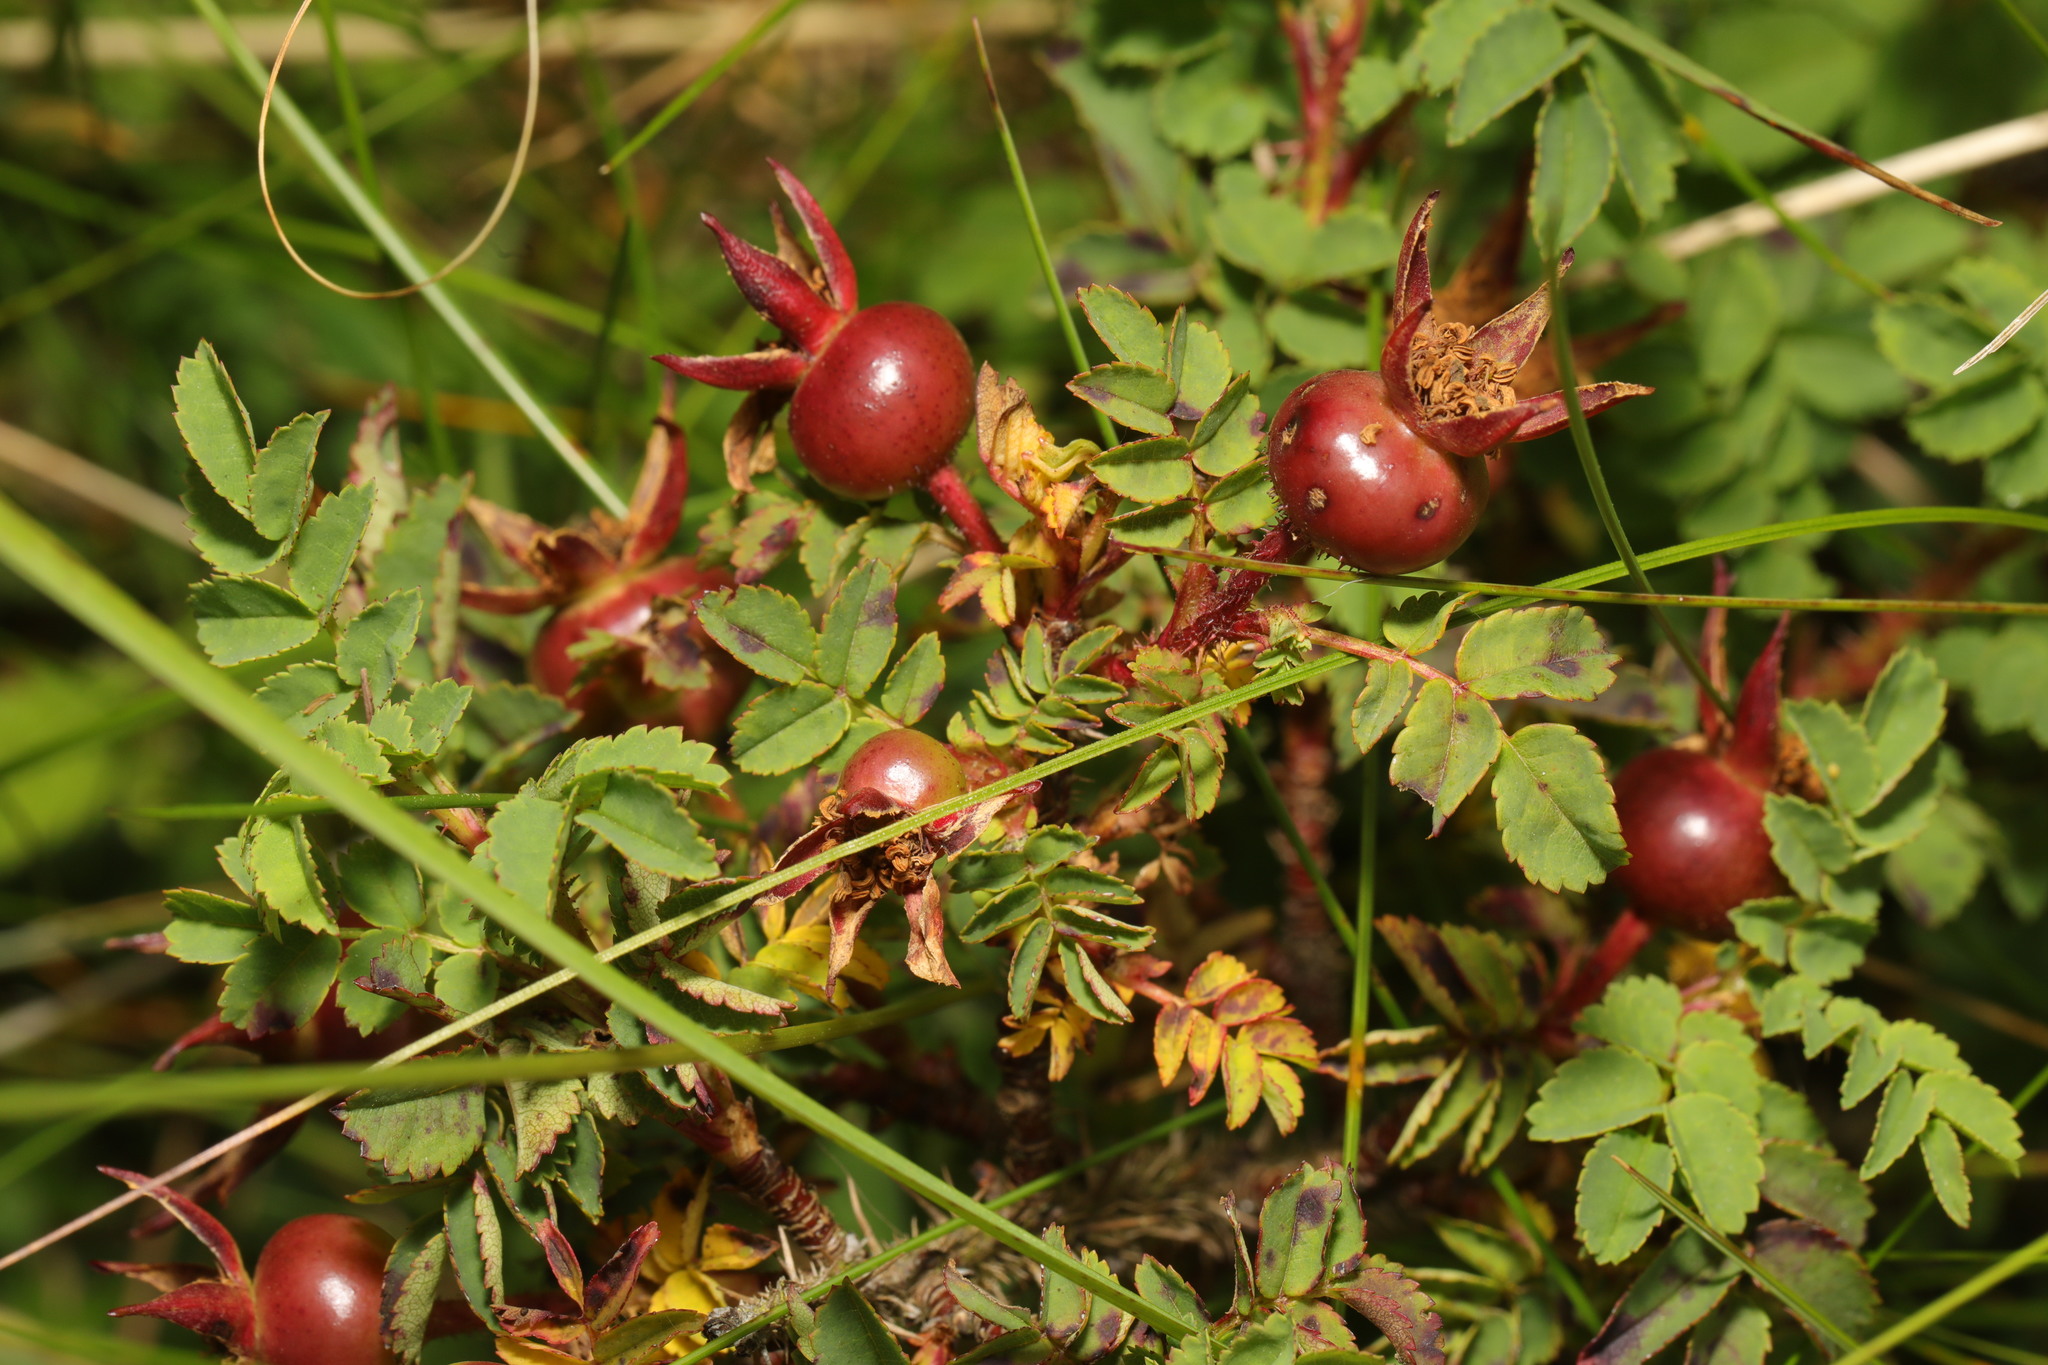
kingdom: Plantae
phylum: Tracheophyta
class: Magnoliopsida
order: Rosales
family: Rosaceae
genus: Rosa
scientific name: Rosa spinosissima
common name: Burnet rose
